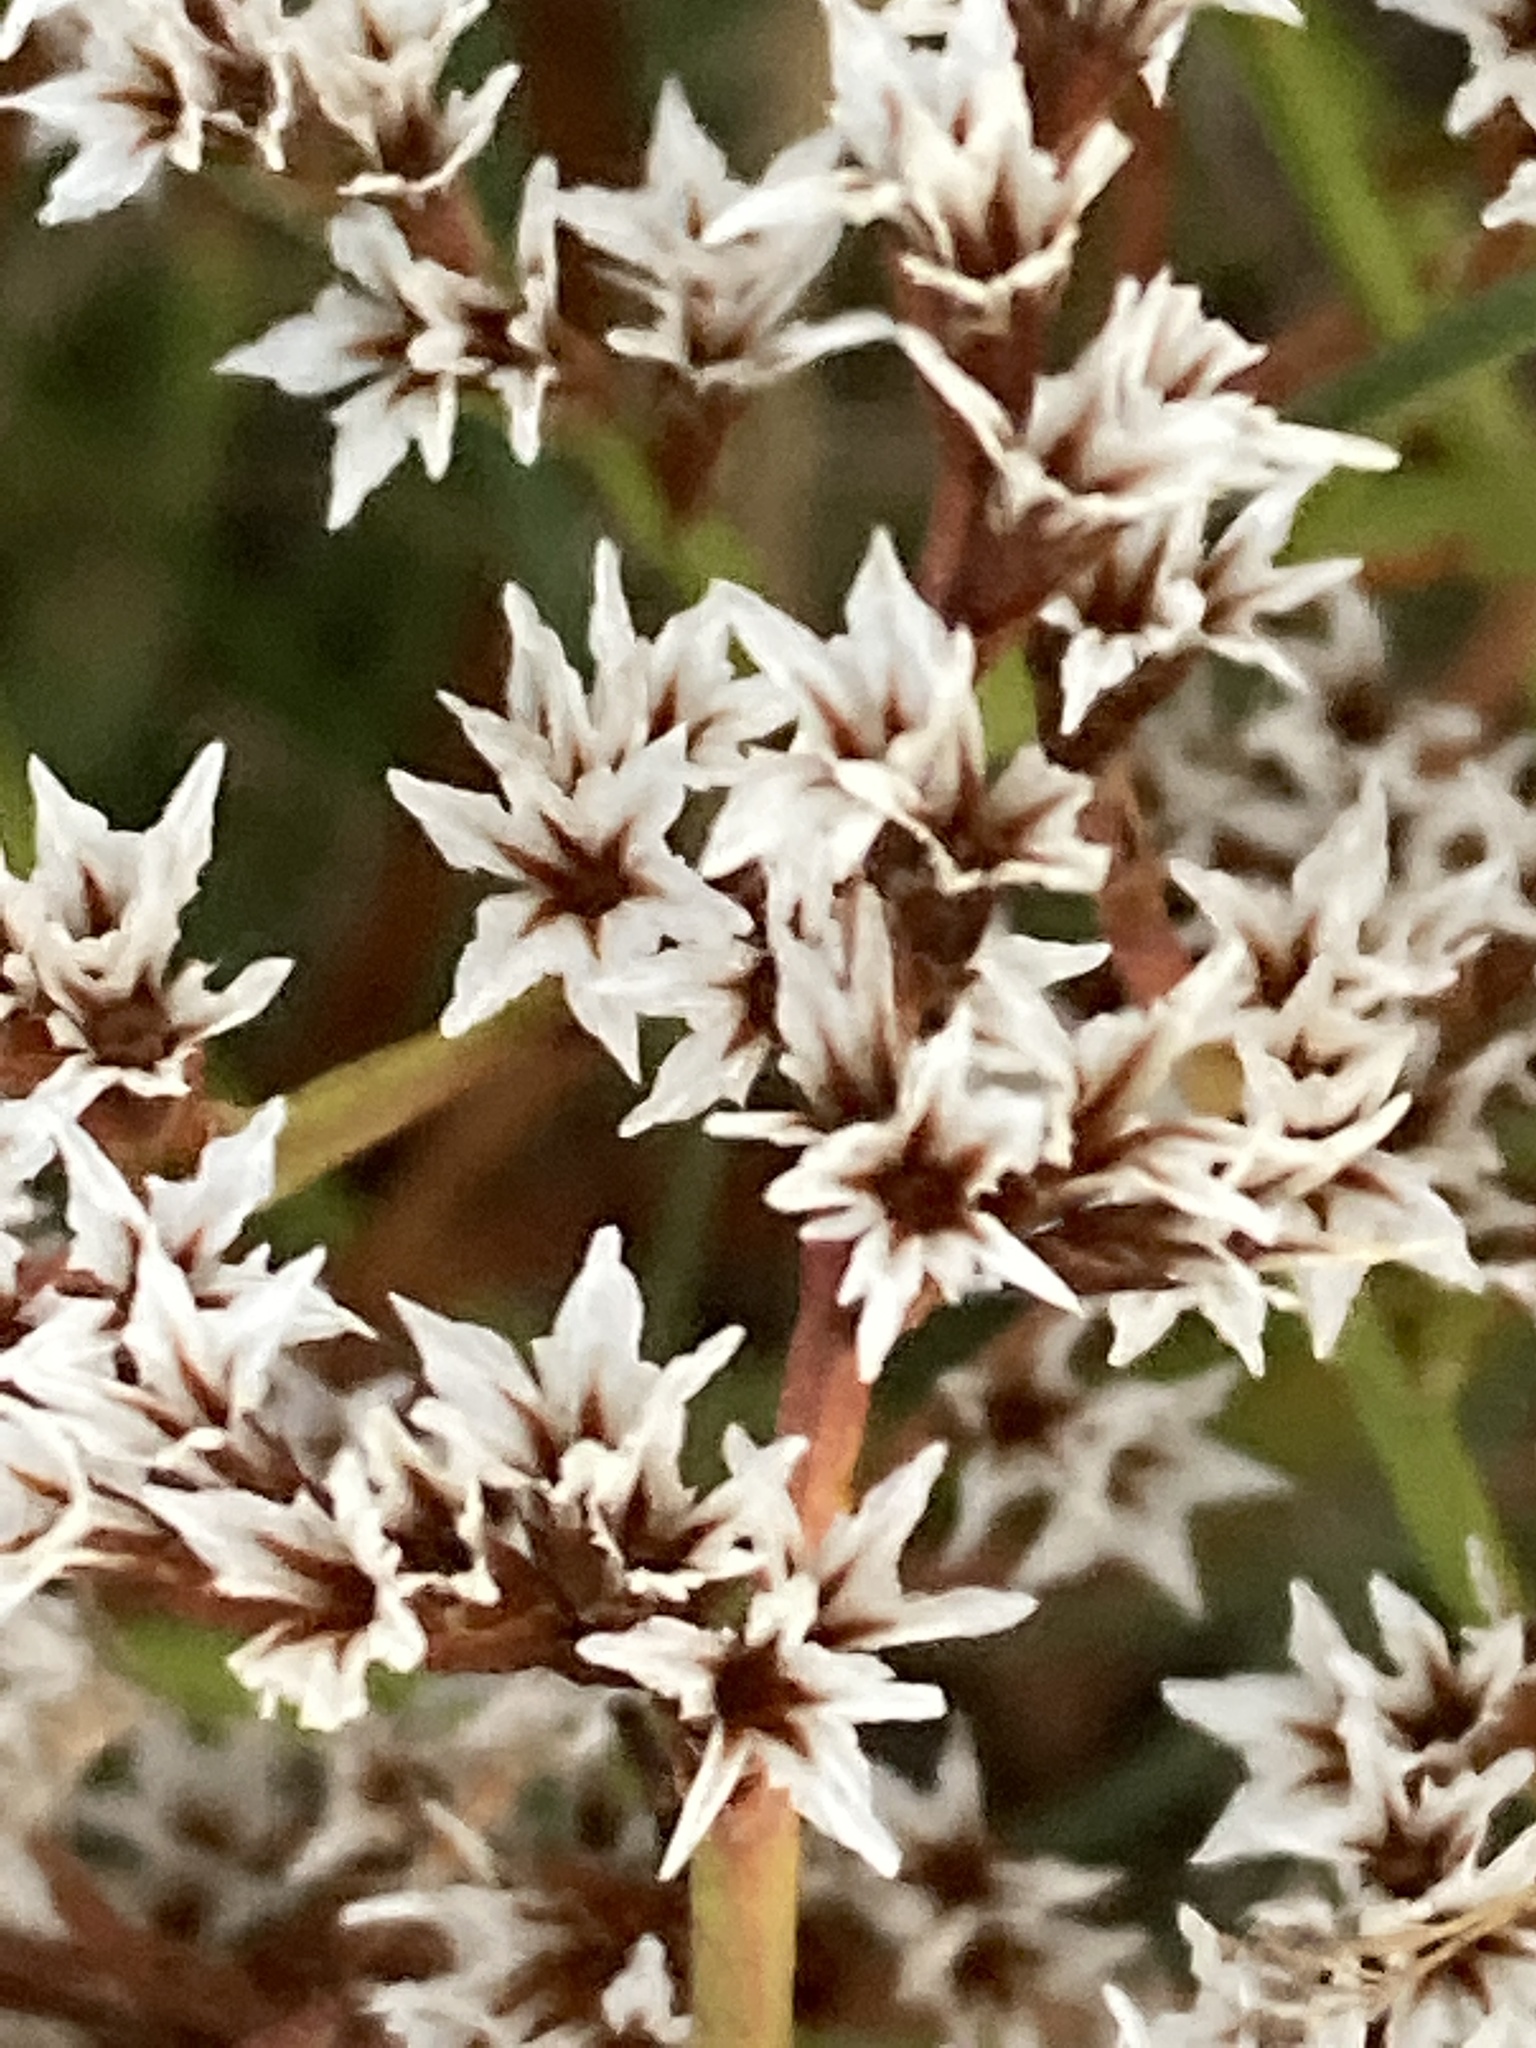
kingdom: Plantae
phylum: Tracheophyta
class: Magnoliopsida
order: Caryophyllales
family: Plumbaginaceae
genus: Goniolimon
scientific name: Goniolimon tataricum
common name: Statice
